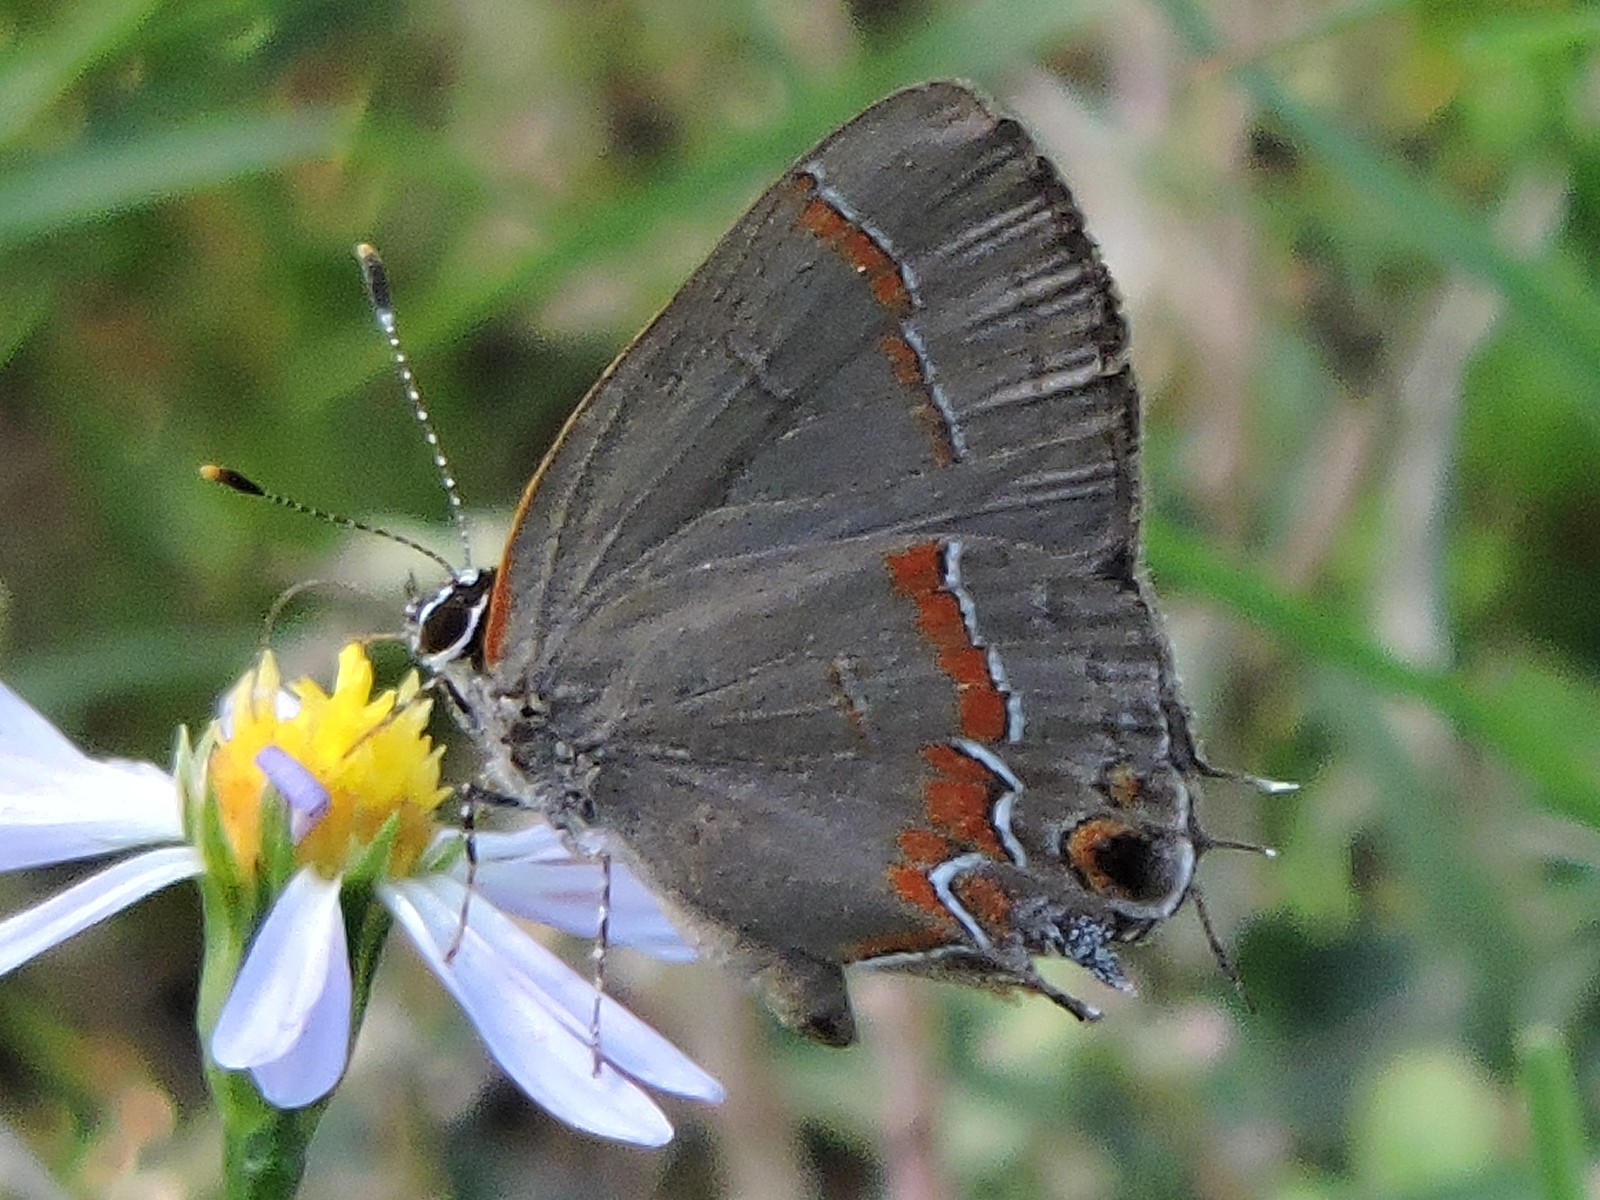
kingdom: Animalia
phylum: Arthropoda
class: Insecta
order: Lepidoptera
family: Lycaenidae
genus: Calycopis
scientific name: Calycopis cecrops
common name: Red-banded hairstreak
